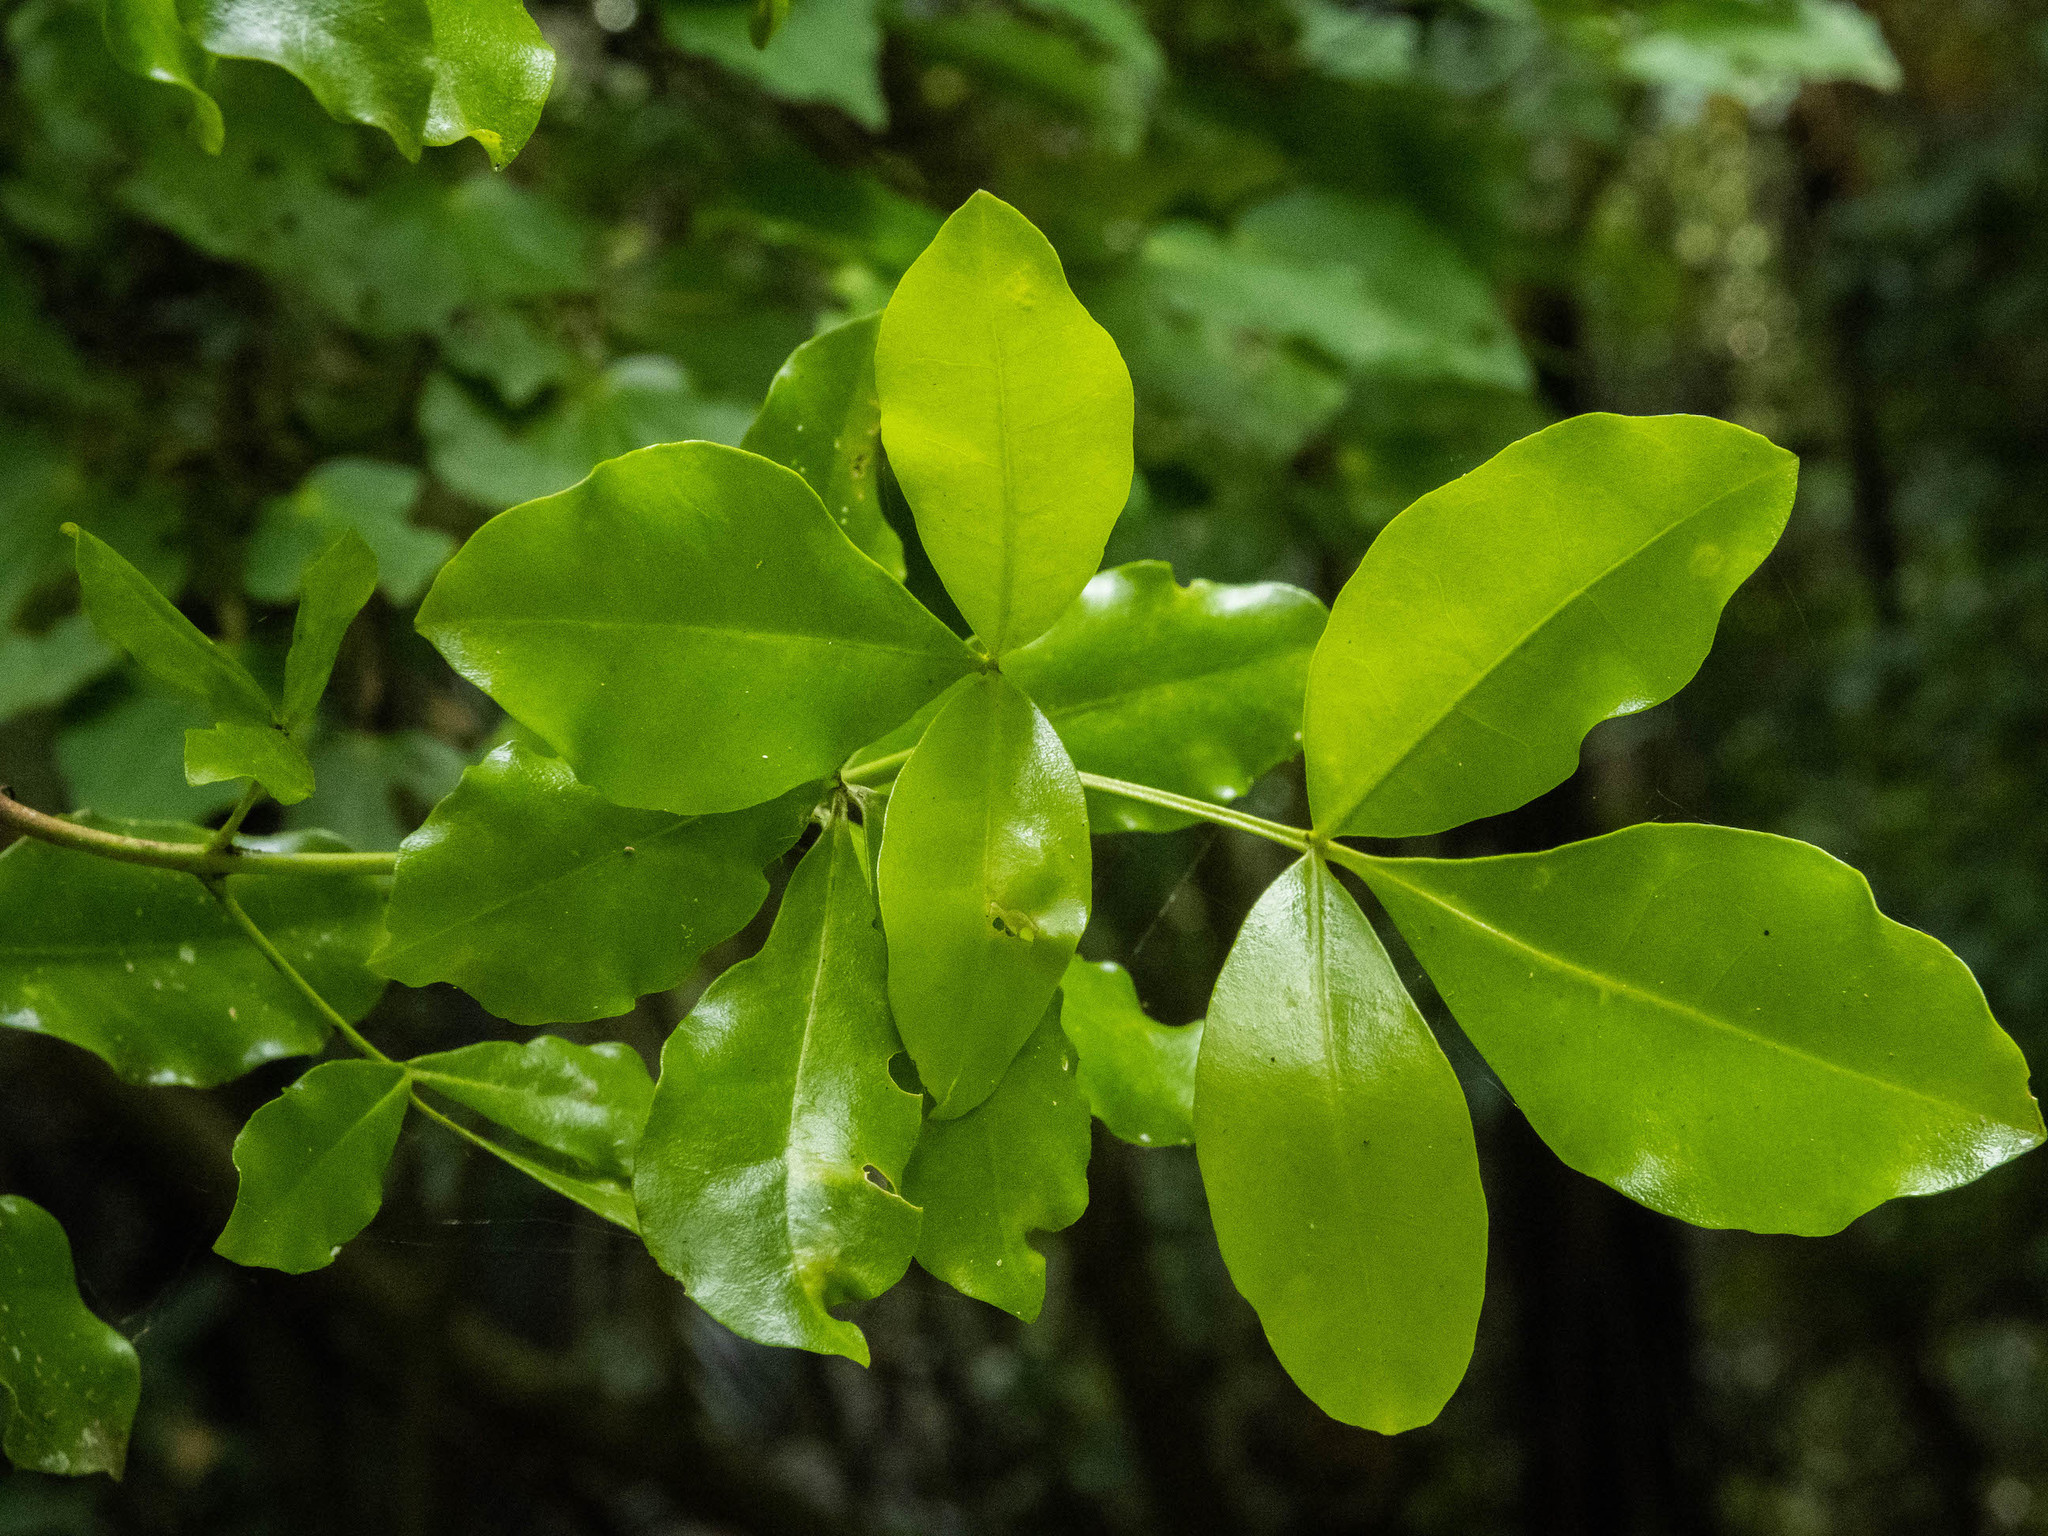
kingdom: Plantae
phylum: Tracheophyta
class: Magnoliopsida
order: Sapindales
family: Rutaceae
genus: Melicope
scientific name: Melicope ternata
